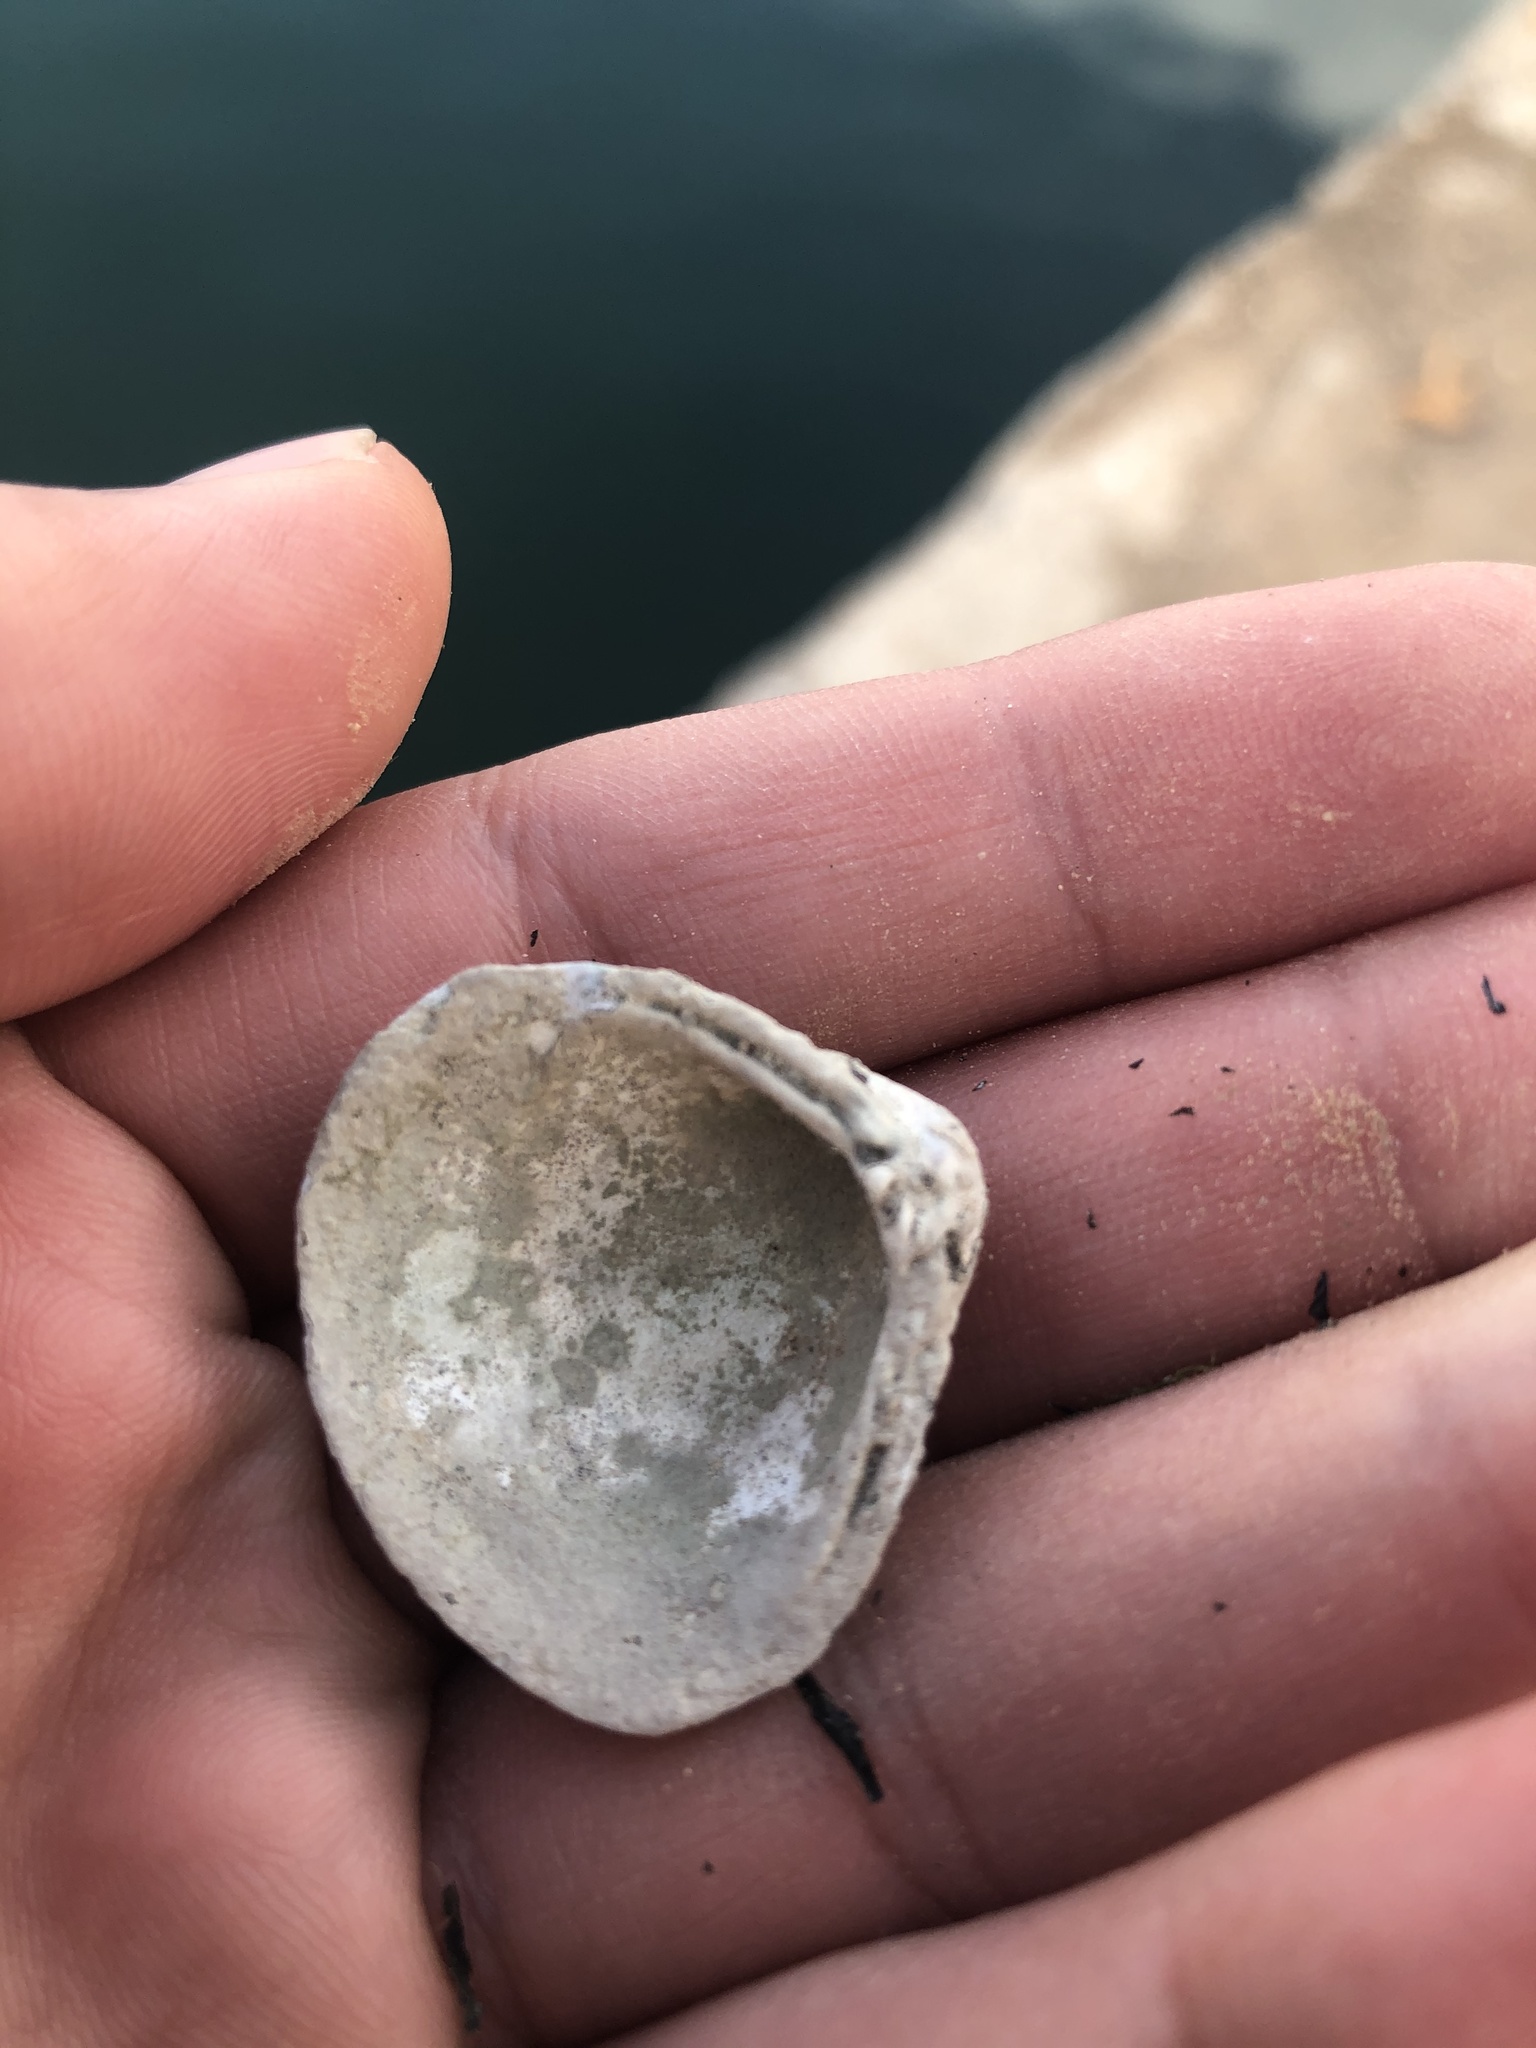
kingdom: Animalia
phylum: Mollusca
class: Bivalvia
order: Venerida
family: Cyrenidae
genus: Corbicula
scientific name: Corbicula fluminea
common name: Asian clam
